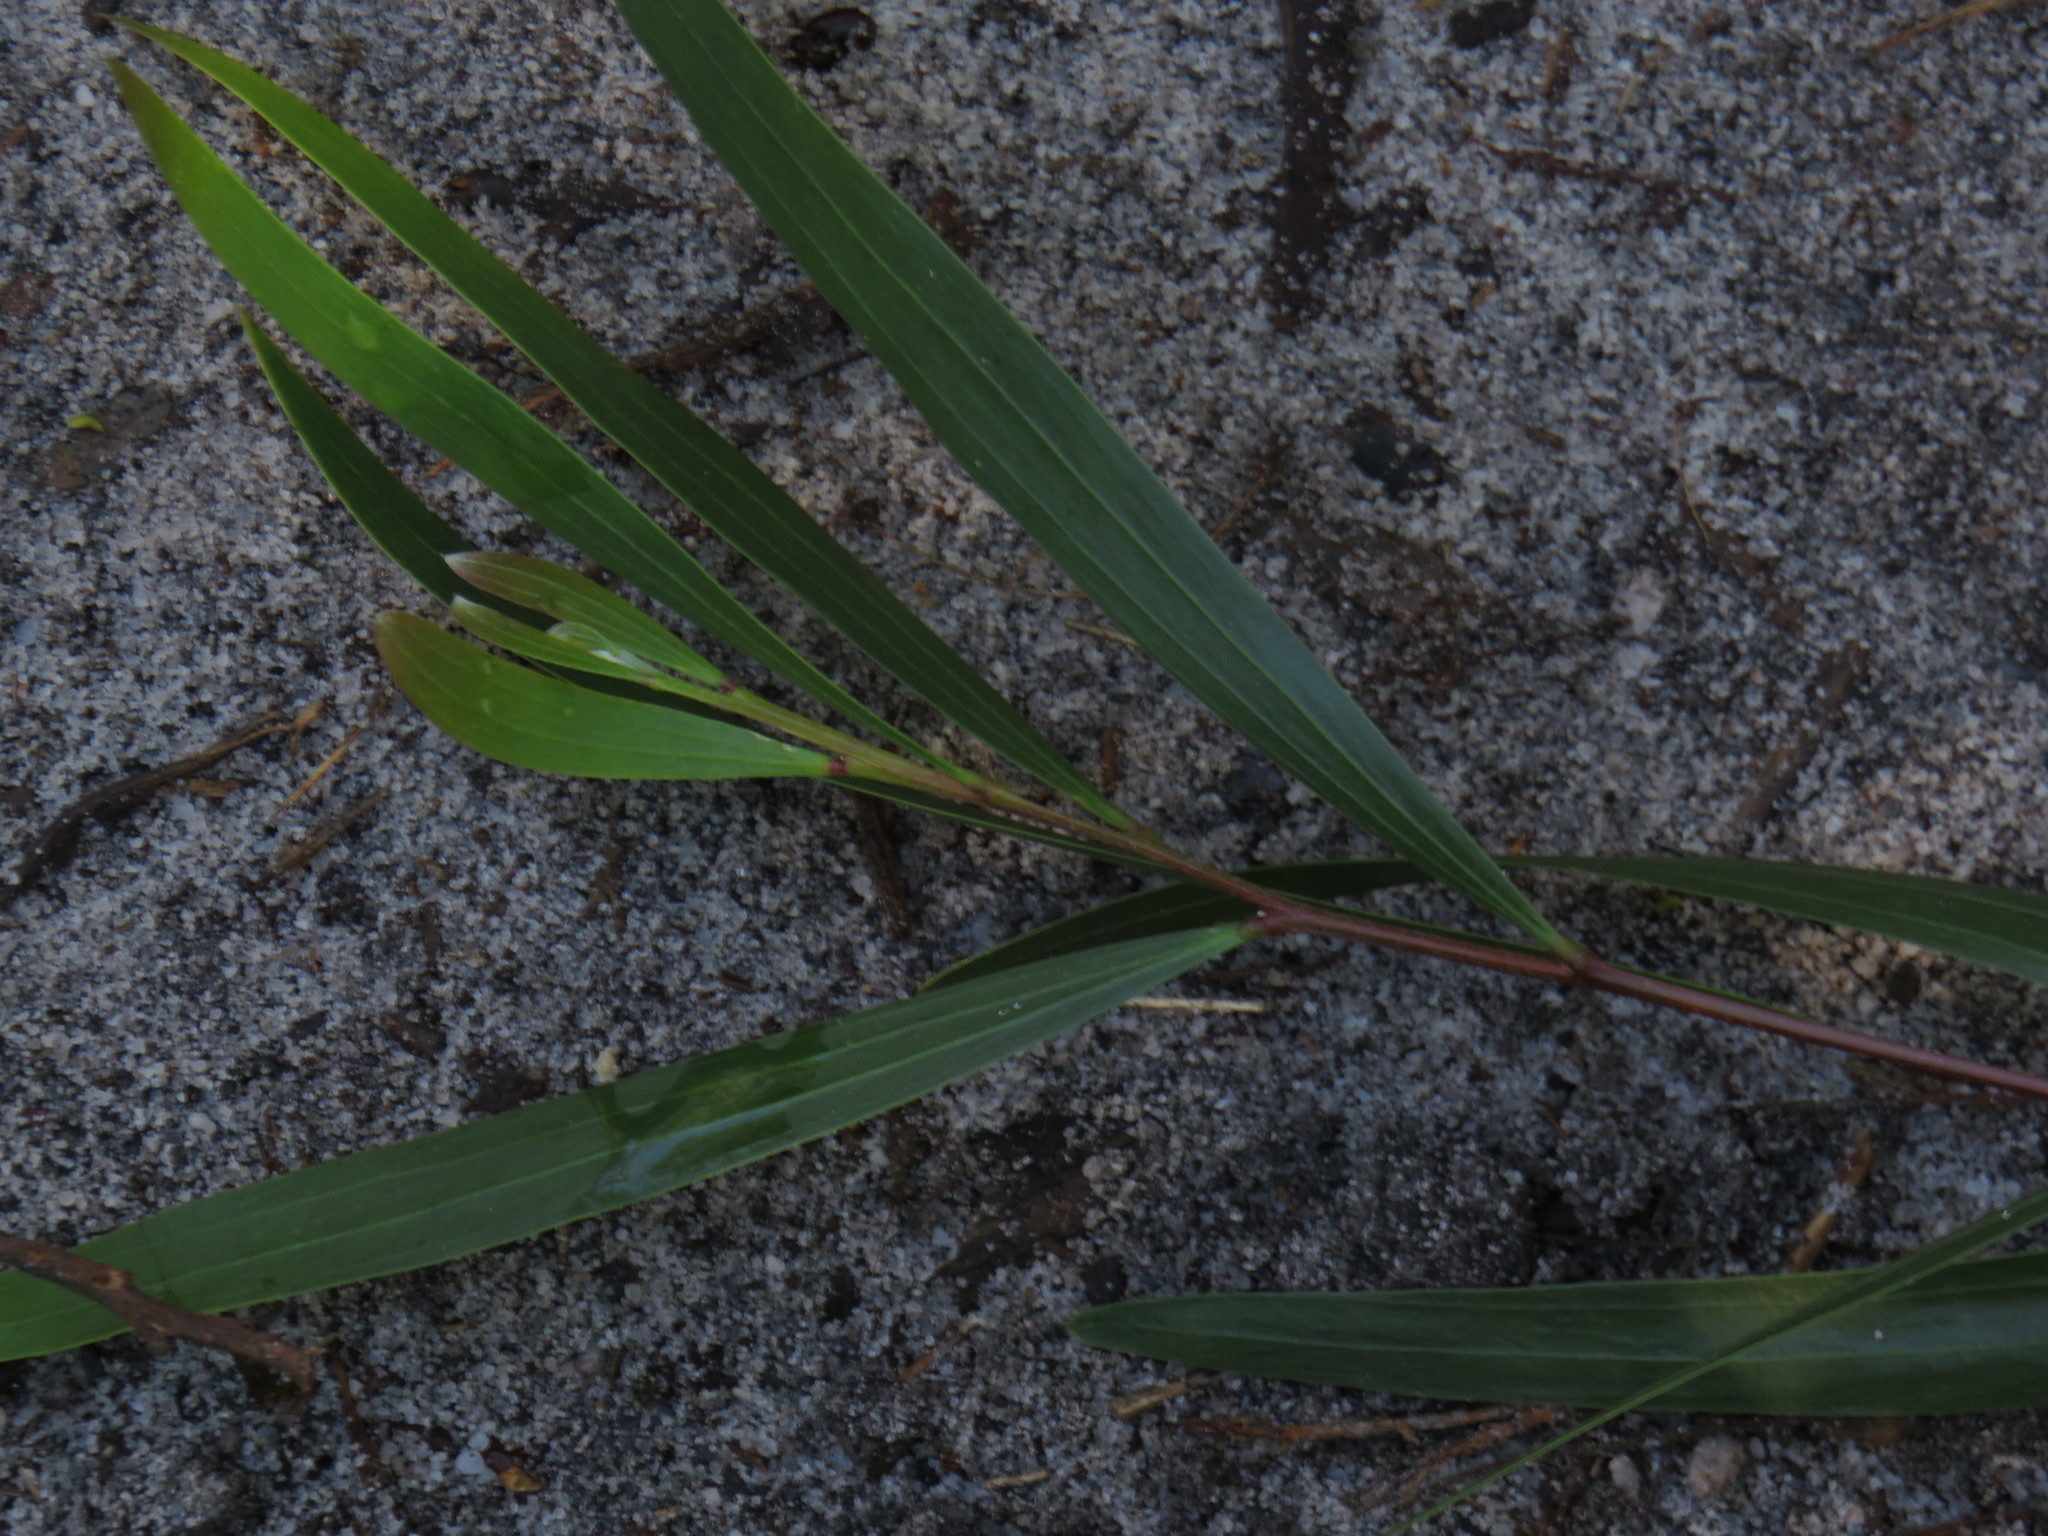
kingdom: Plantae
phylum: Tracheophyta
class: Magnoliopsida
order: Fabales
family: Fabaceae
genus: Acacia
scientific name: Acacia longifolia
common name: Sydney golden wattle
